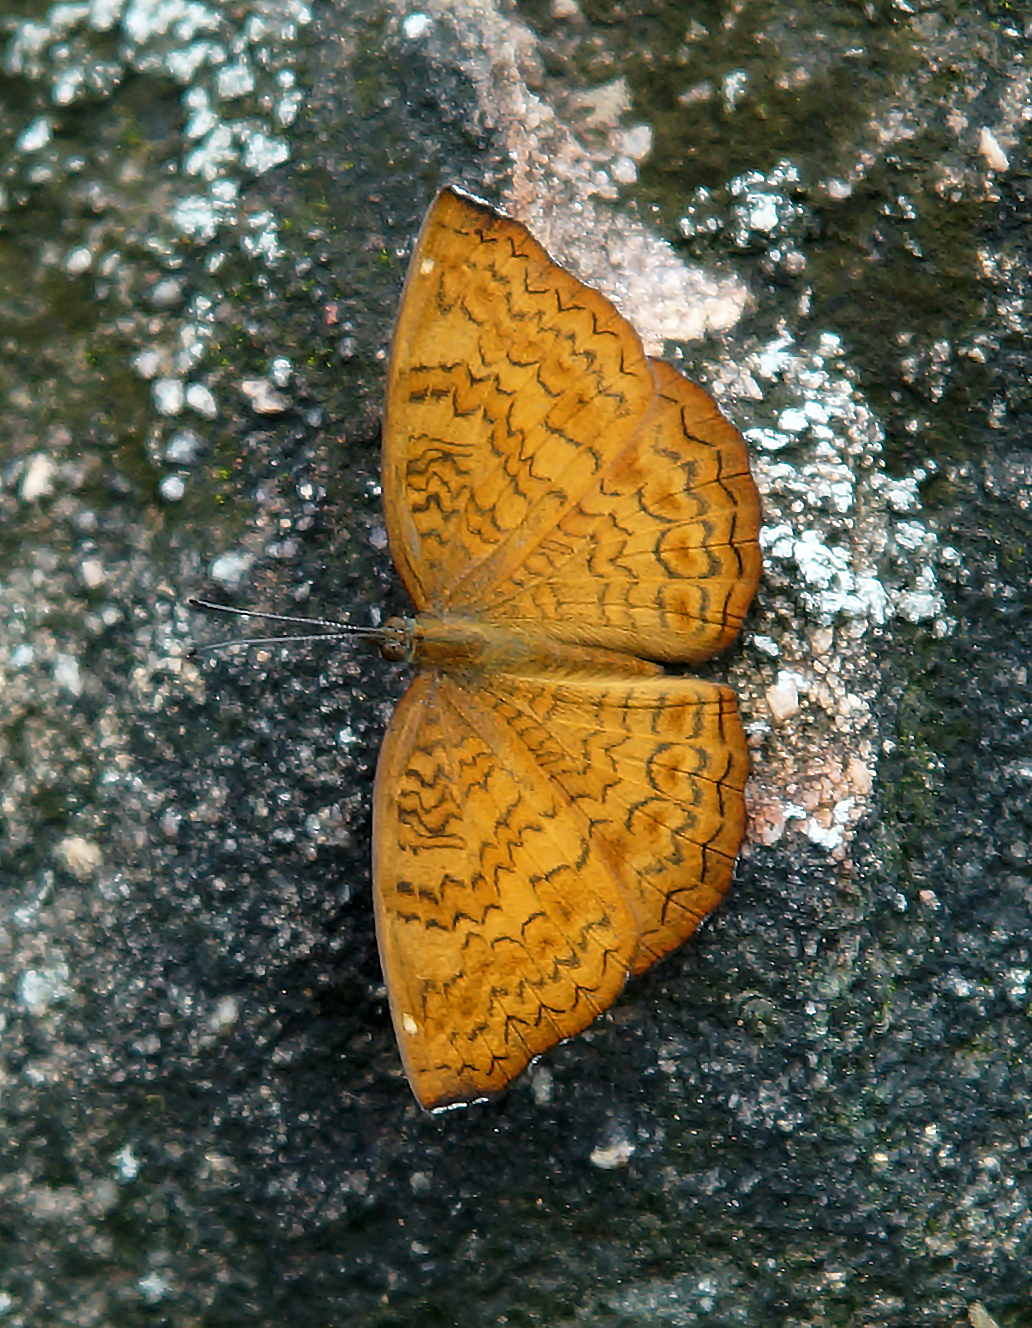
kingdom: Animalia
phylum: Arthropoda
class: Insecta
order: Lepidoptera
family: Nymphalidae
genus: Ariadne
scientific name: Ariadne merione
